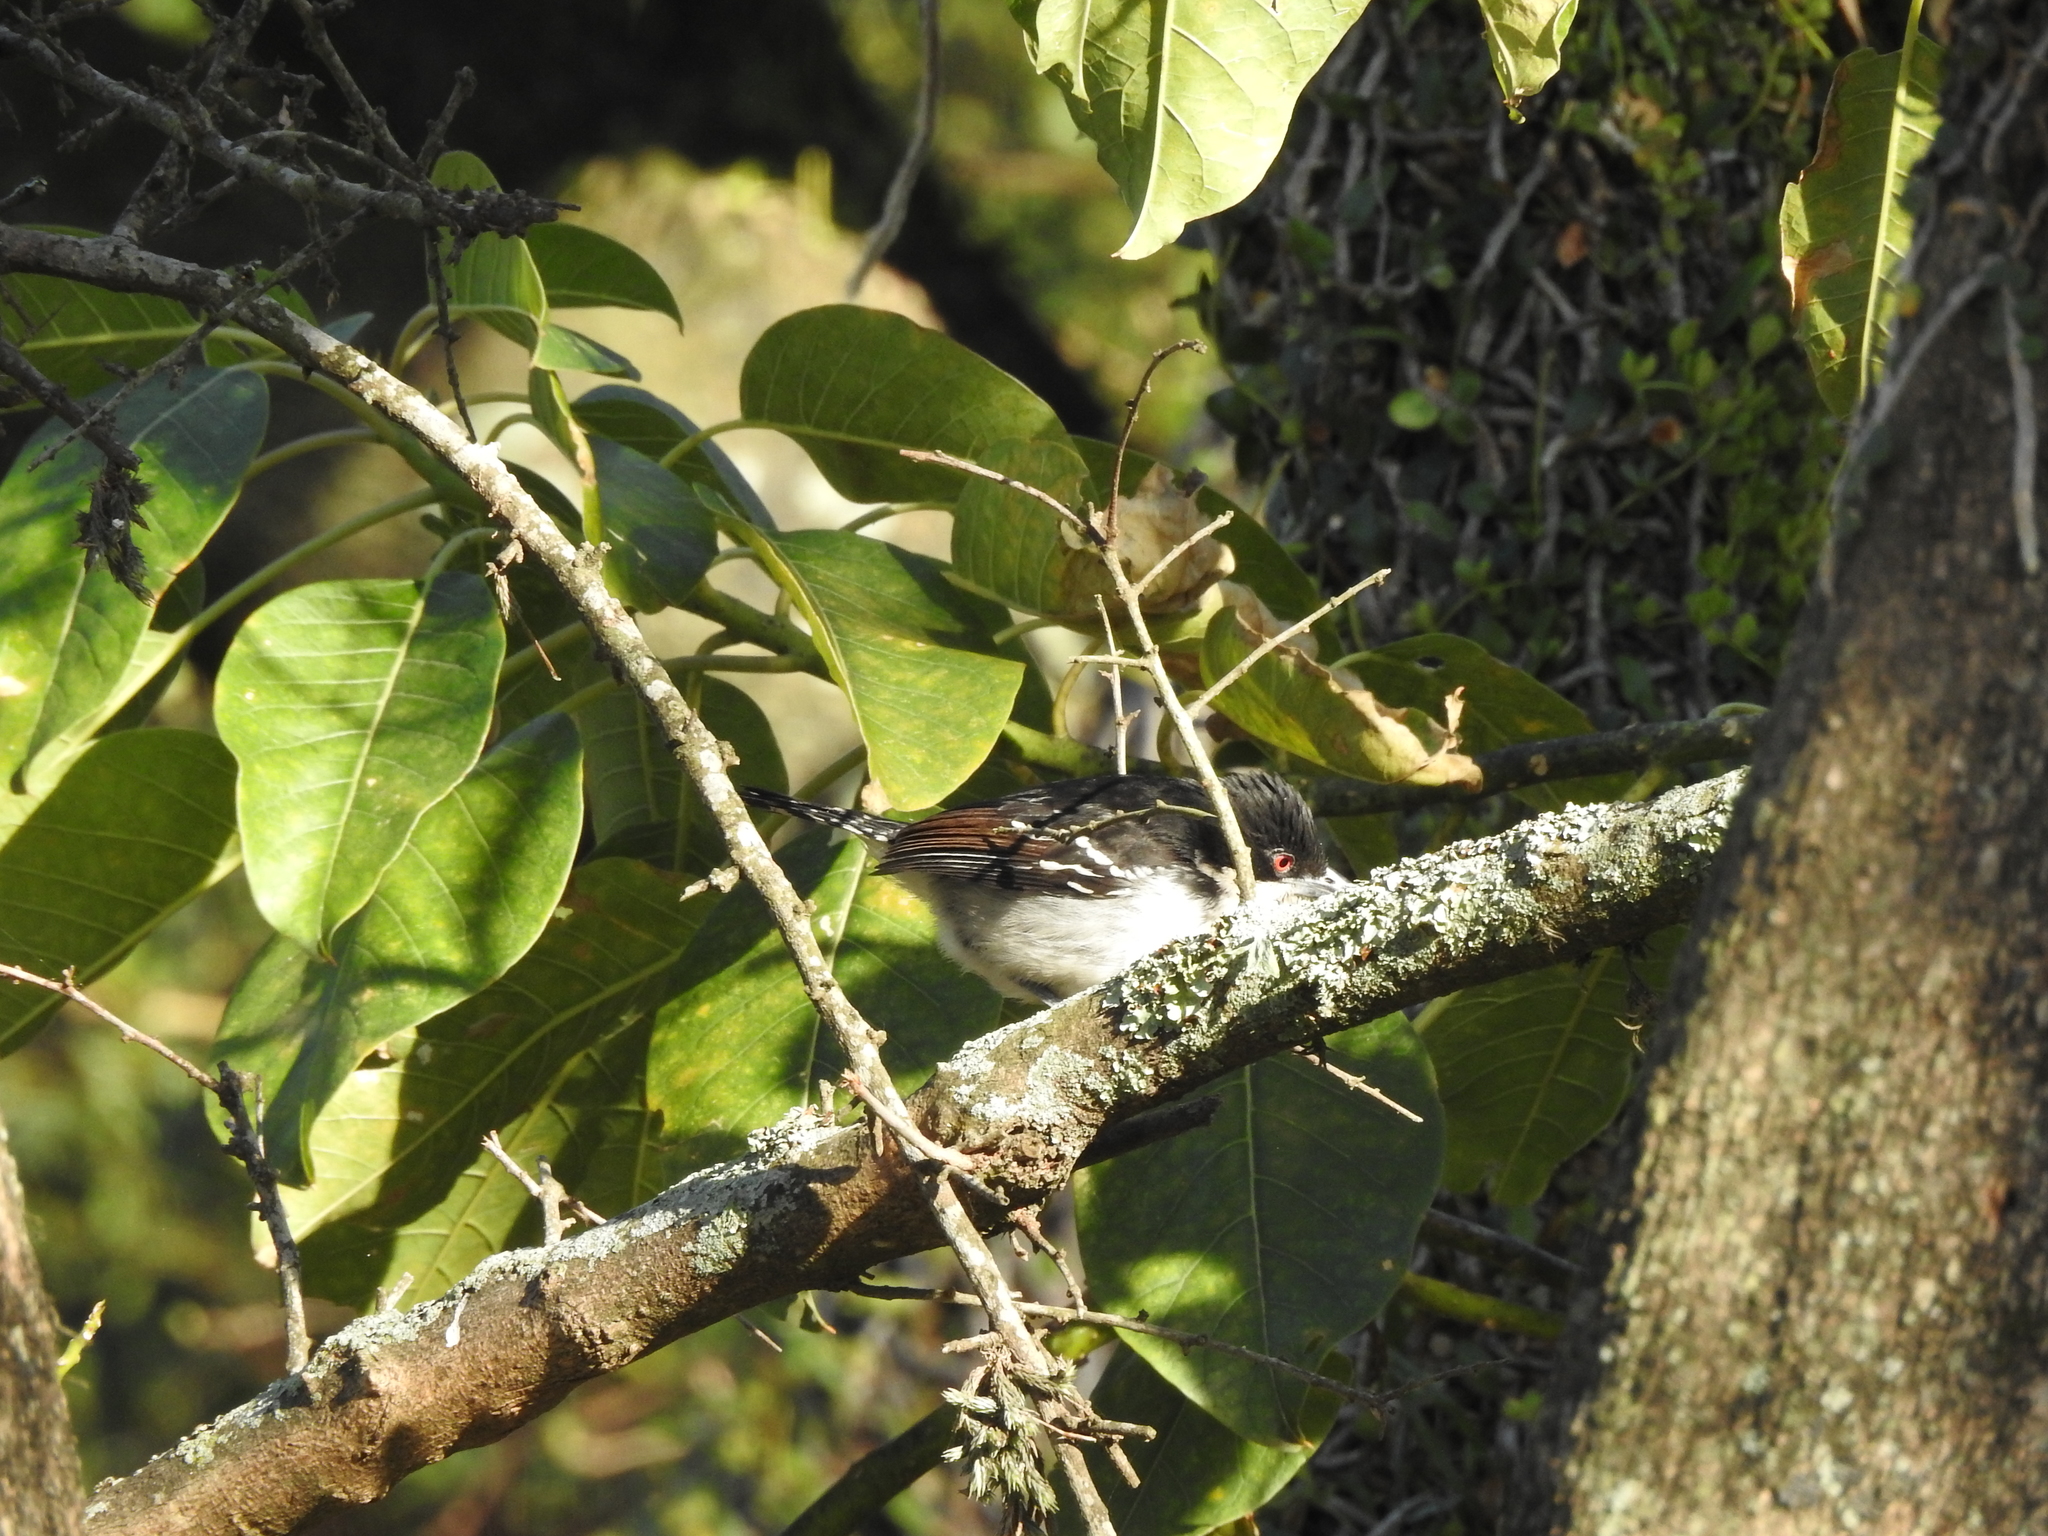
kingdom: Animalia
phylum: Chordata
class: Aves
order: Passeriformes
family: Thamnophilidae
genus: Taraba
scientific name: Taraba major
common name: Great antshrike
